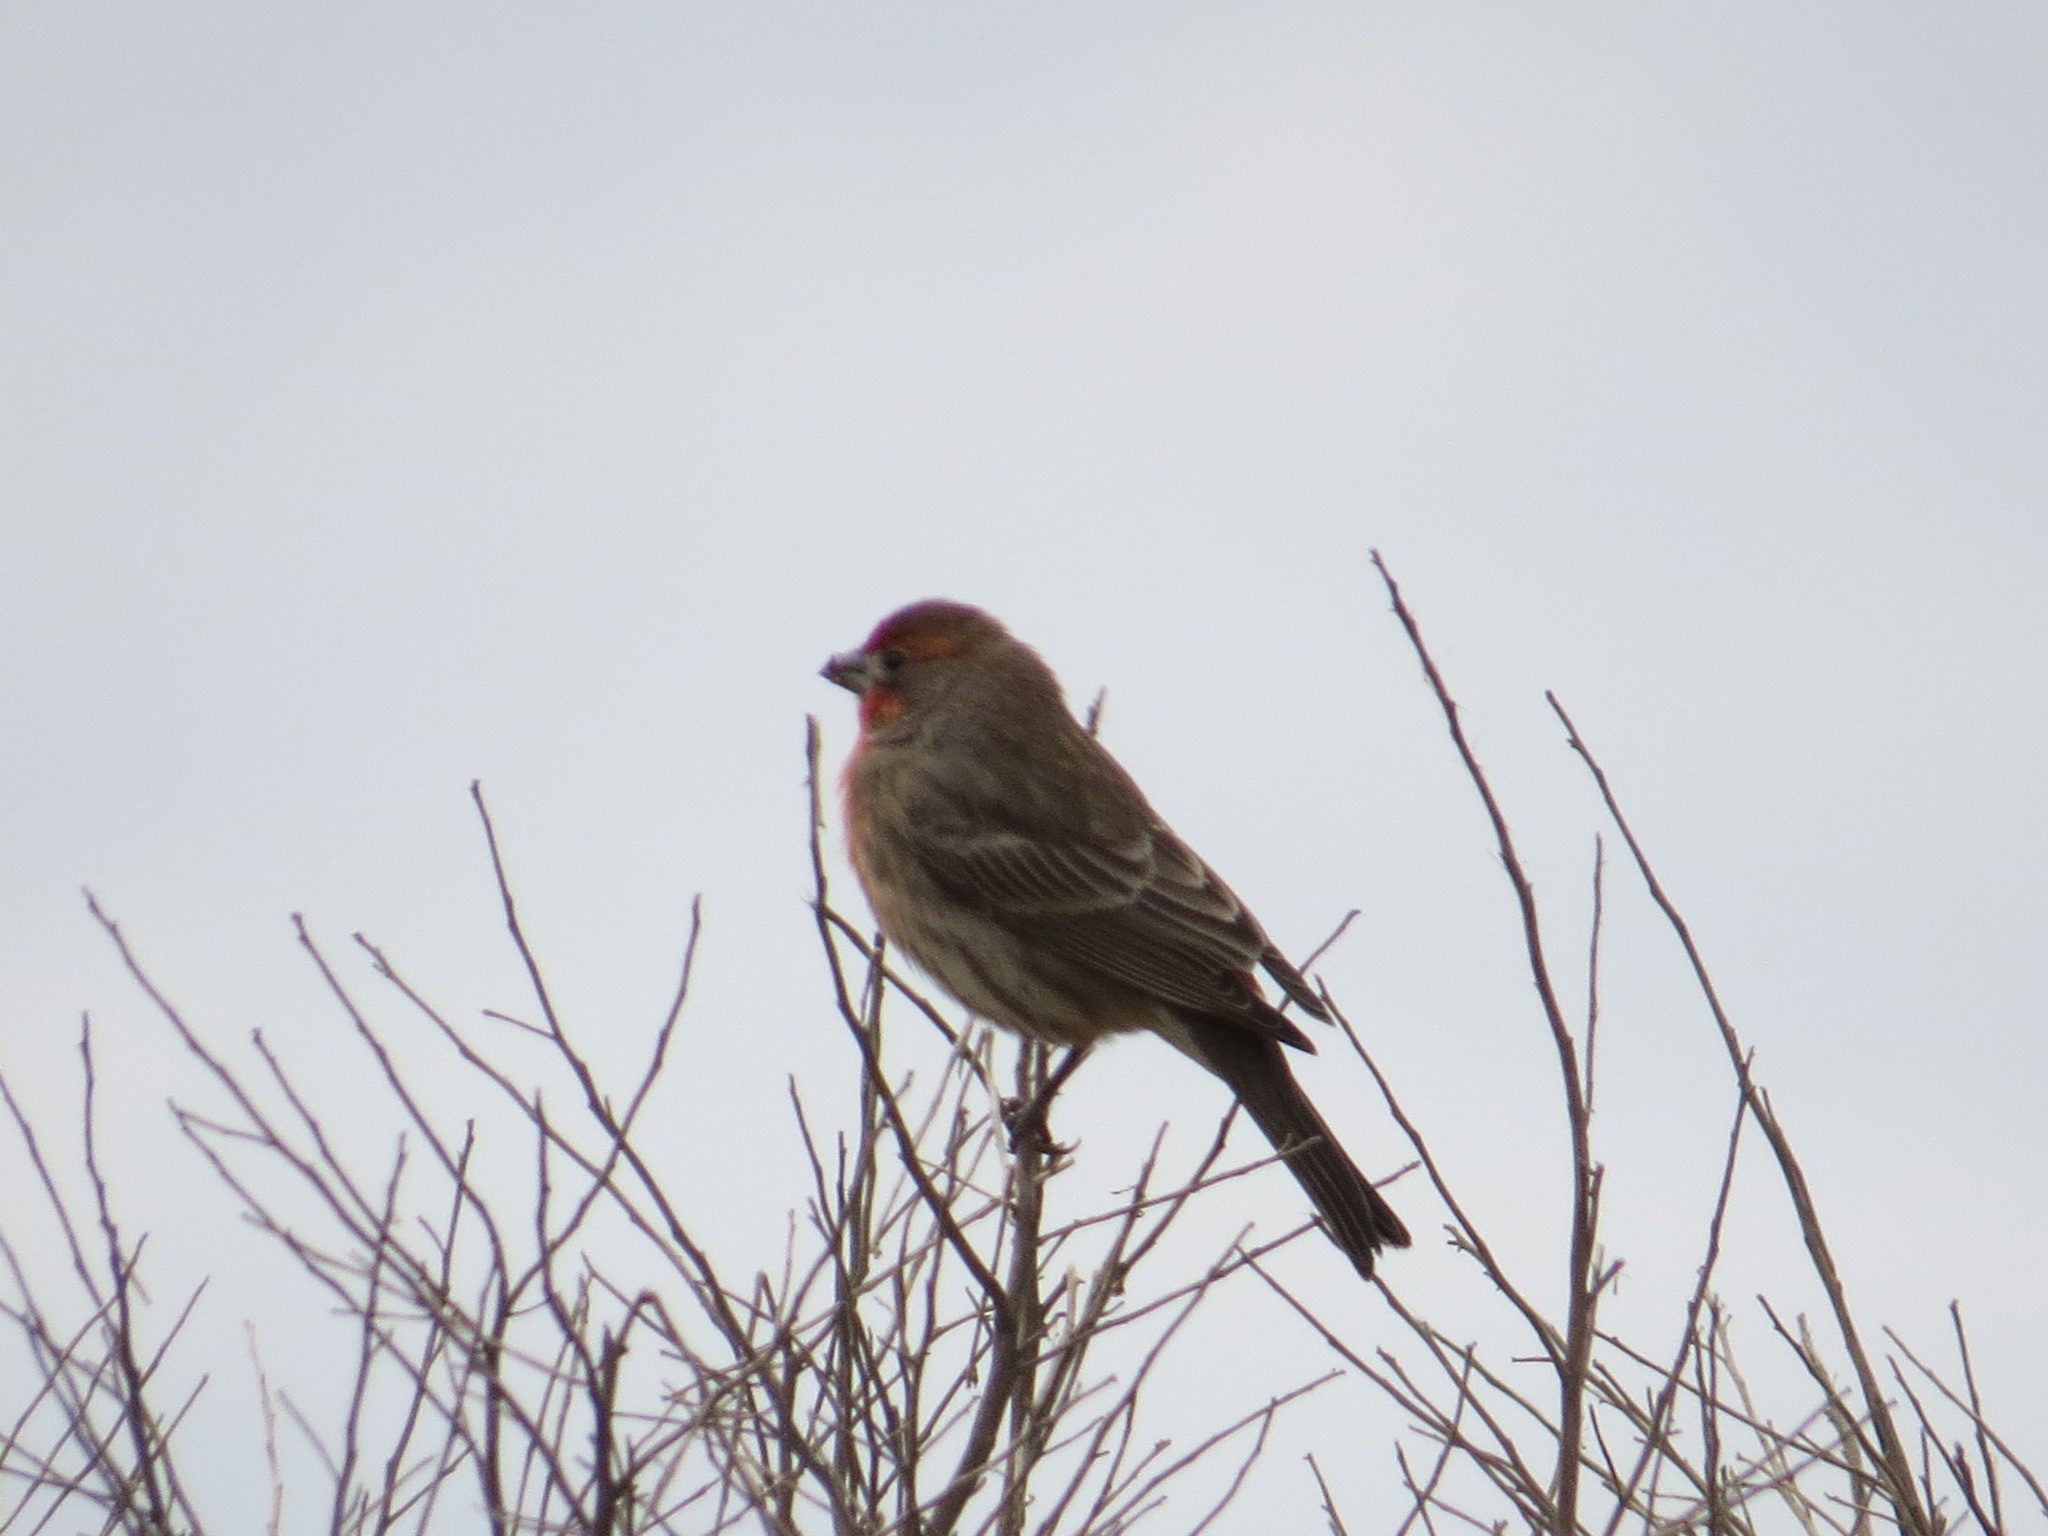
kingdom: Animalia
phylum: Chordata
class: Aves
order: Passeriformes
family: Fringillidae
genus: Haemorhous
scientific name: Haemorhous mexicanus
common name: House finch
